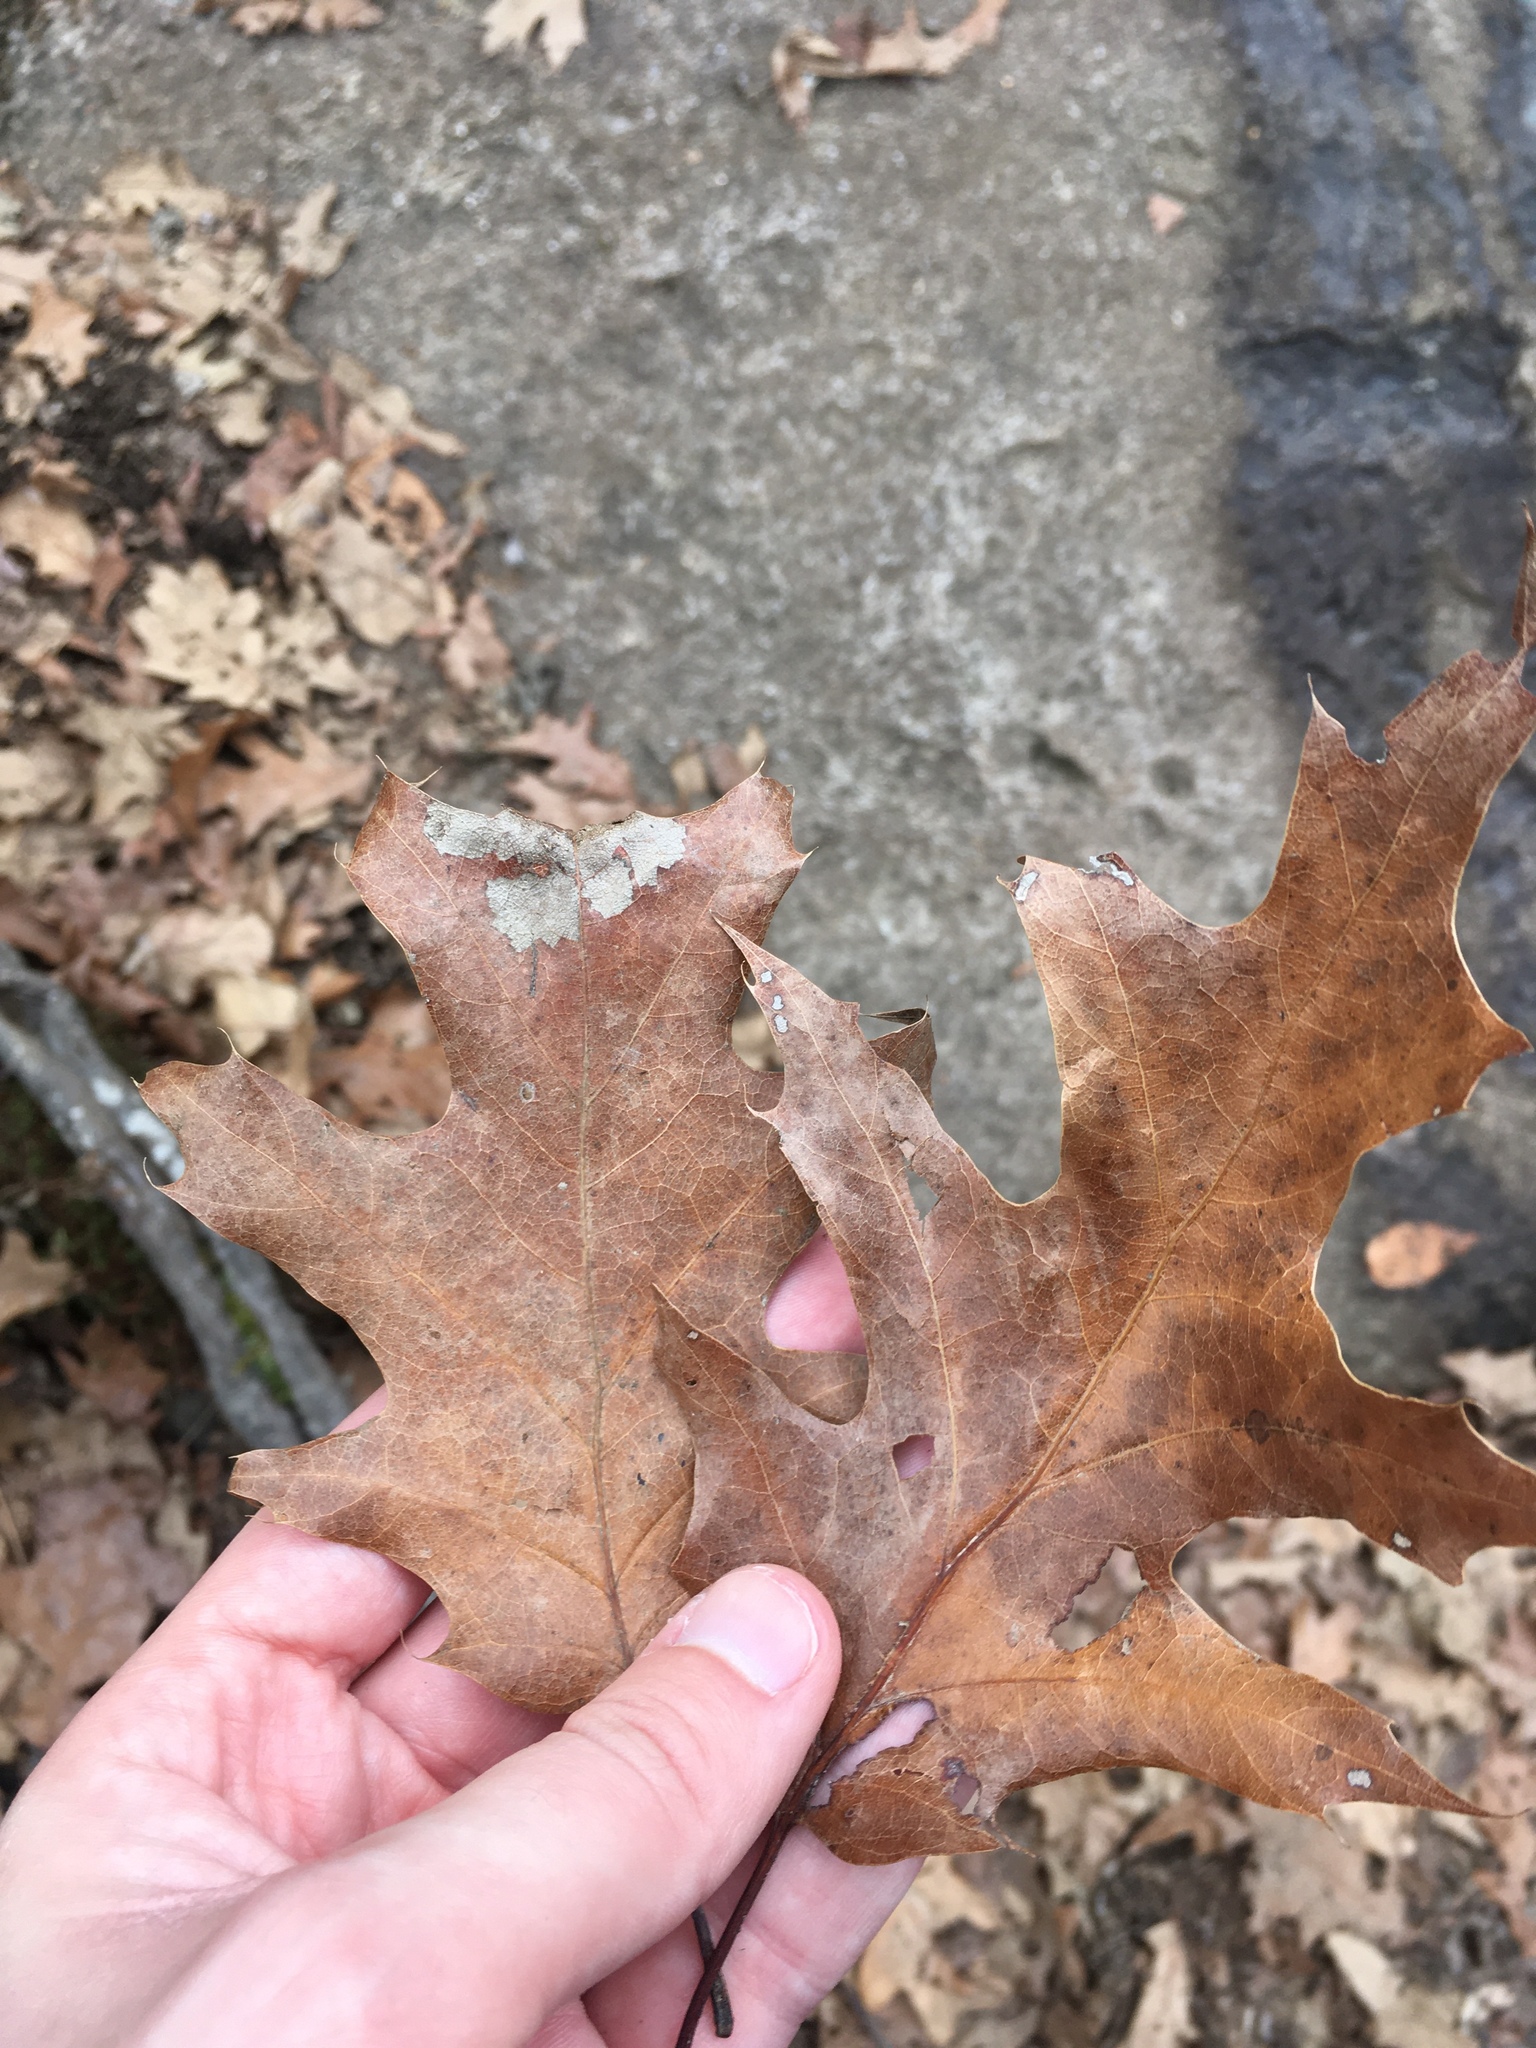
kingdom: Plantae
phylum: Tracheophyta
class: Magnoliopsida
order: Fagales
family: Fagaceae
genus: Quercus
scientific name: Quercus rubra
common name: Red oak
